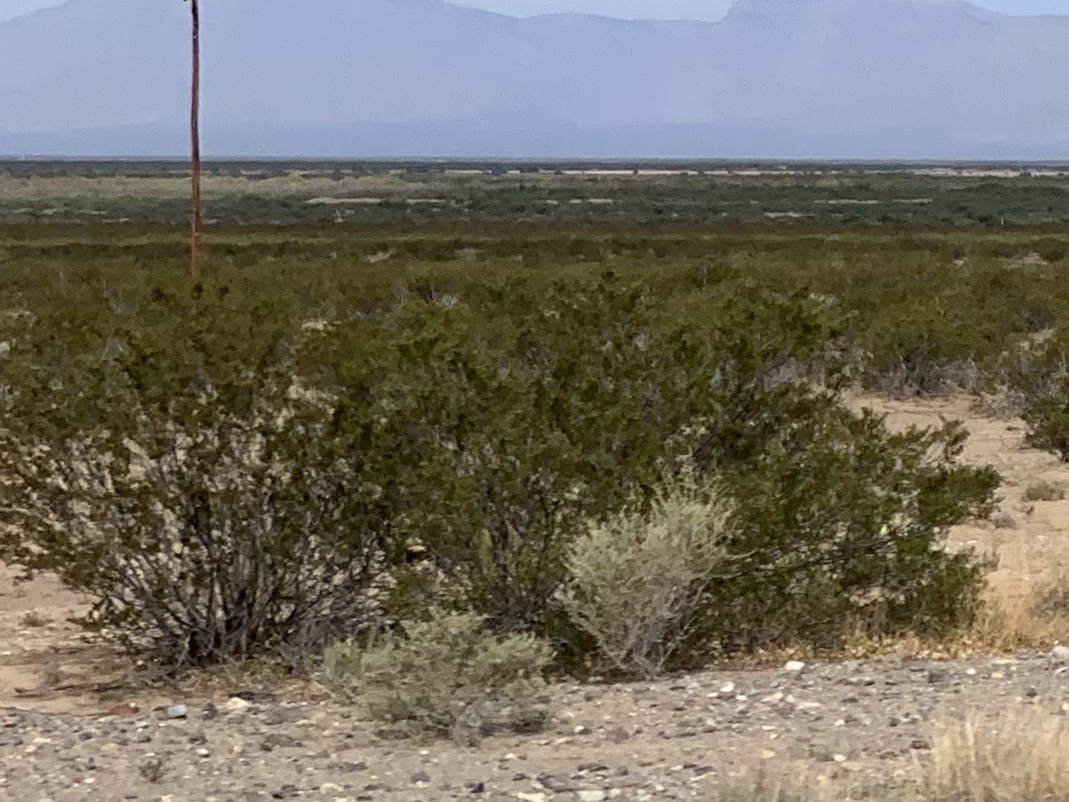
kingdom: Plantae
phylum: Tracheophyta
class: Magnoliopsida
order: Zygophyllales
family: Zygophyllaceae
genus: Larrea
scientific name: Larrea tridentata
